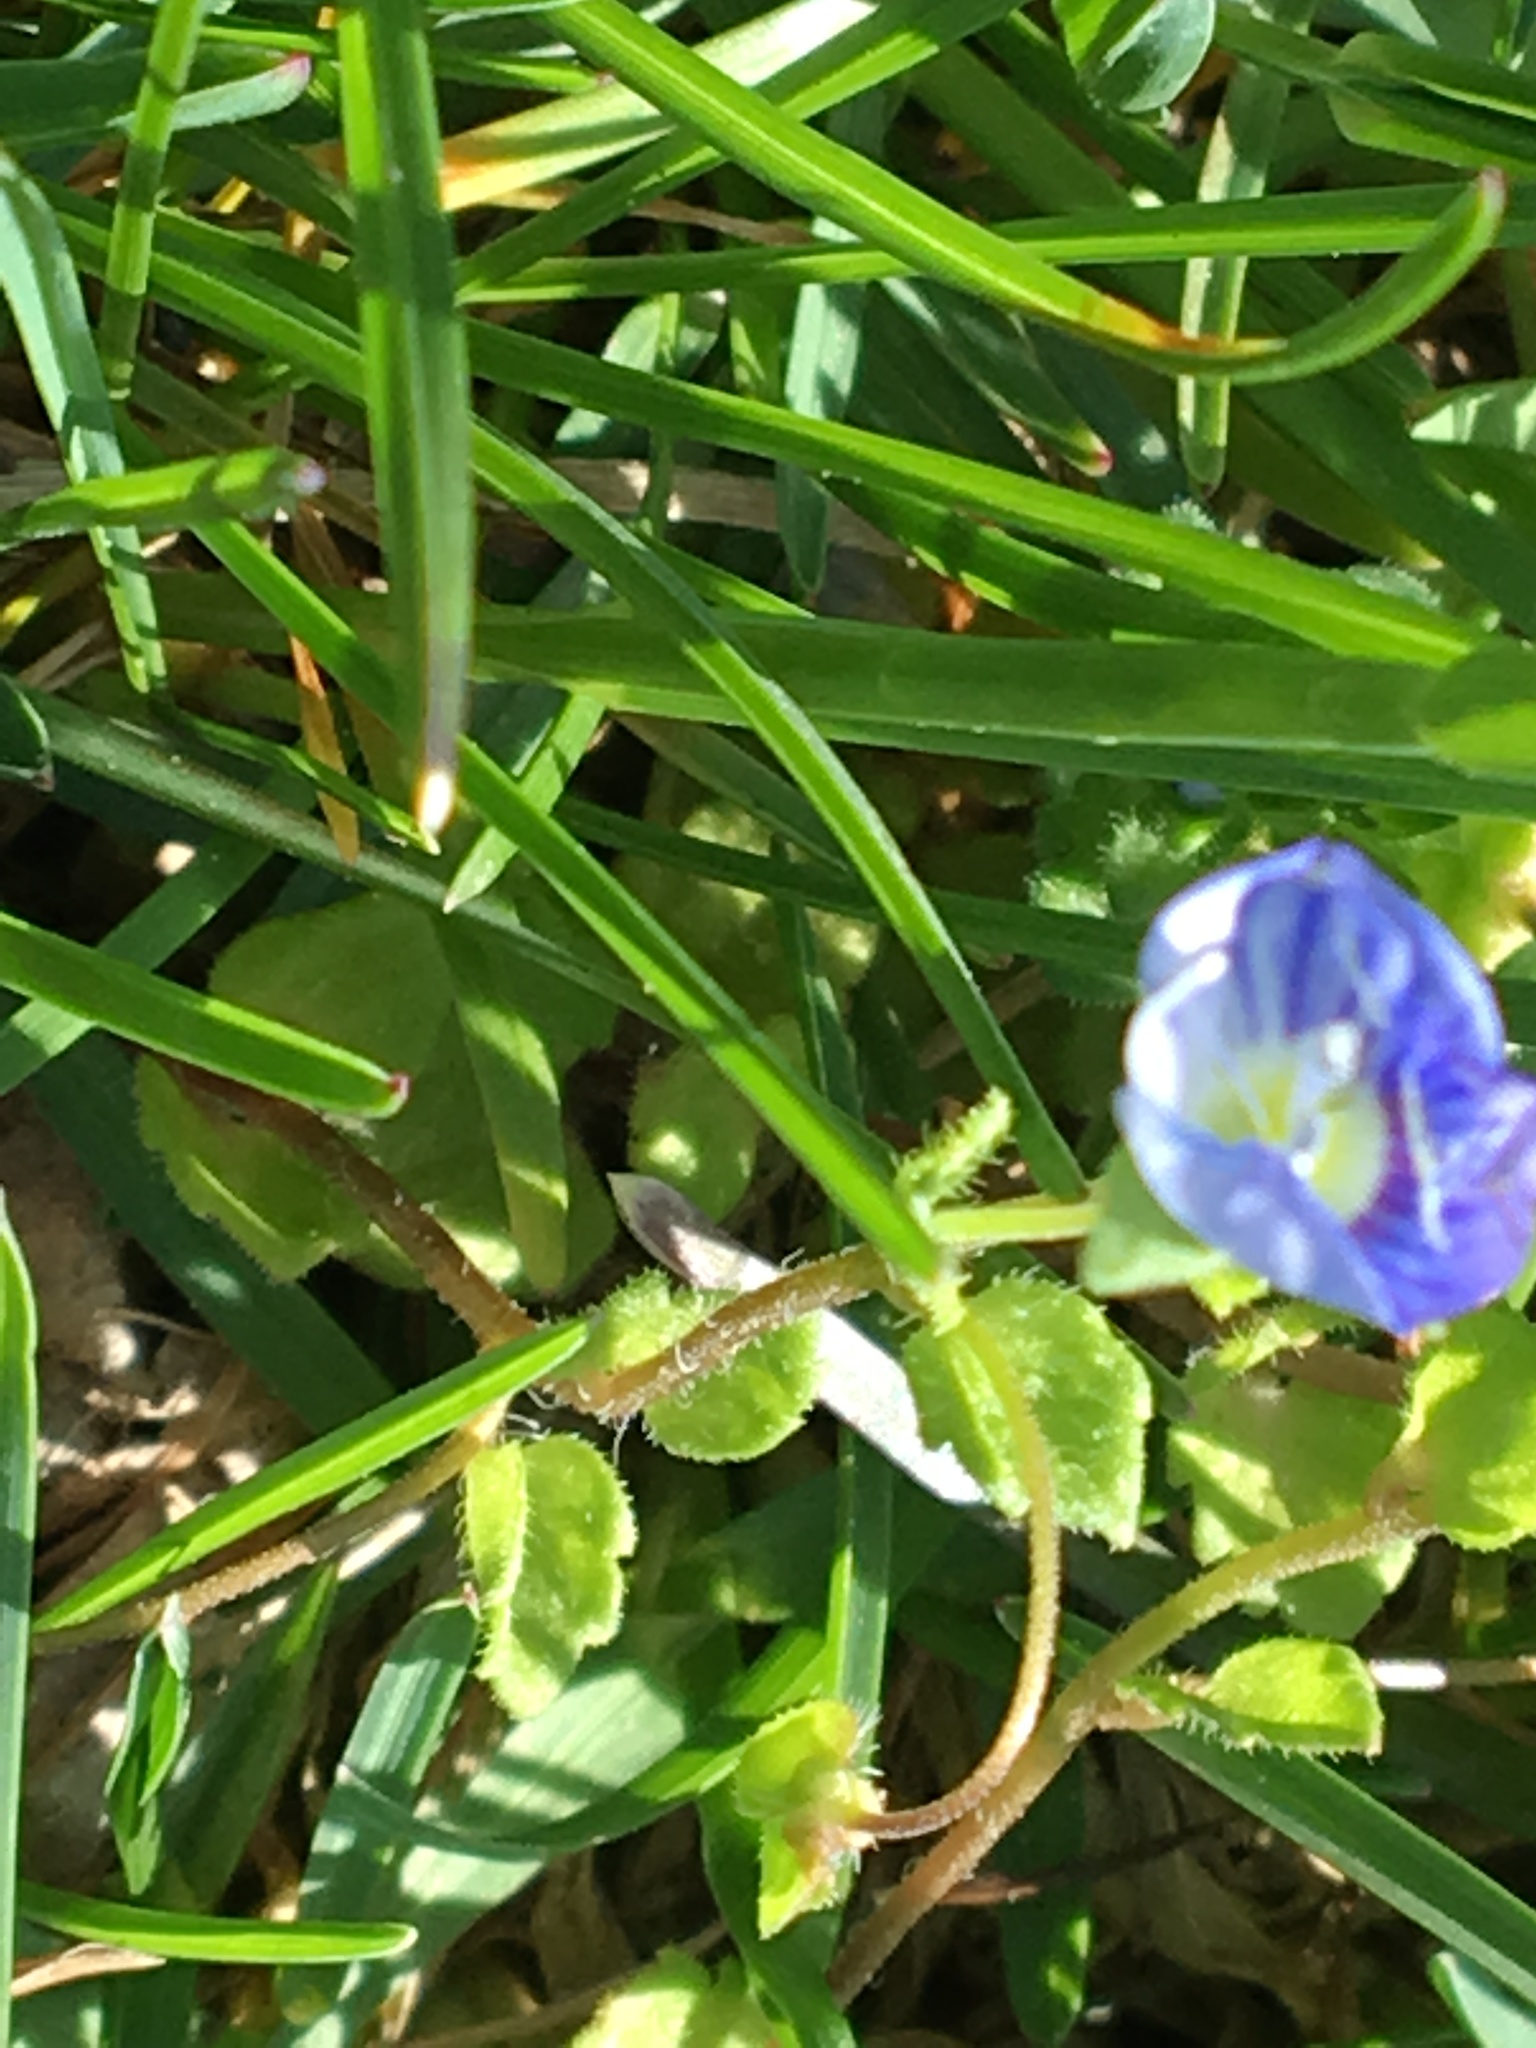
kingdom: Plantae
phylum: Tracheophyta
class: Magnoliopsida
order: Lamiales
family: Plantaginaceae
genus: Veronica
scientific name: Veronica persica
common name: Common field-speedwell
